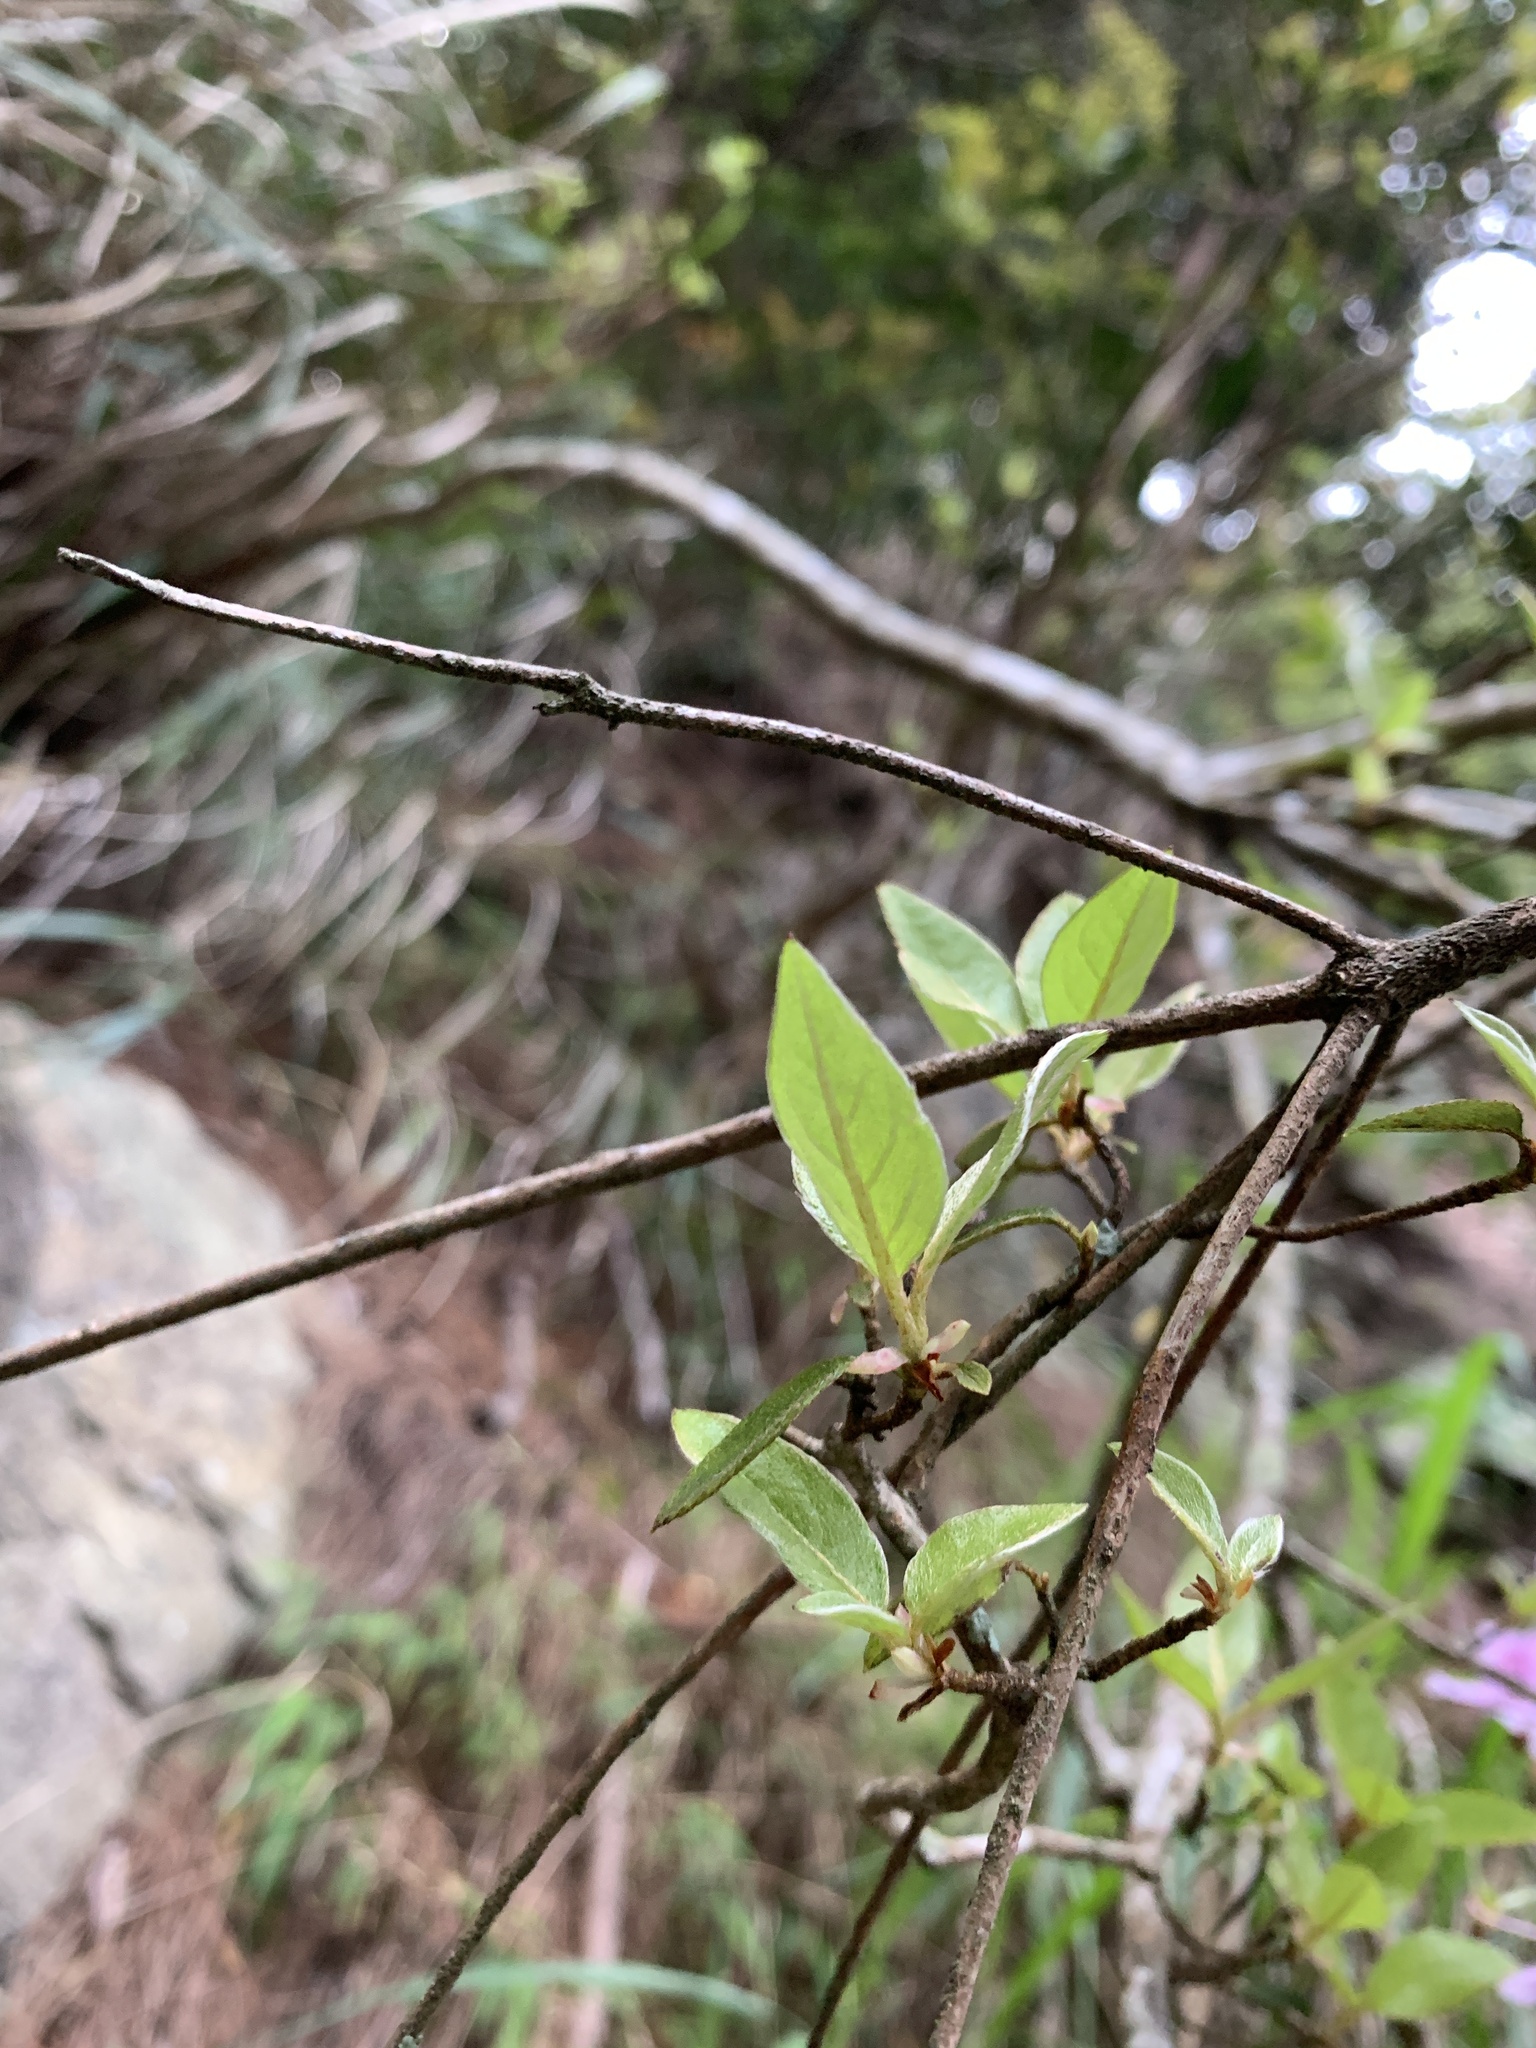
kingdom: Plantae
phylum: Tracheophyta
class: Magnoliopsida
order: Ericales
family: Ericaceae
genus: Rhododendron
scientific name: Rhododendron breviperulatum
